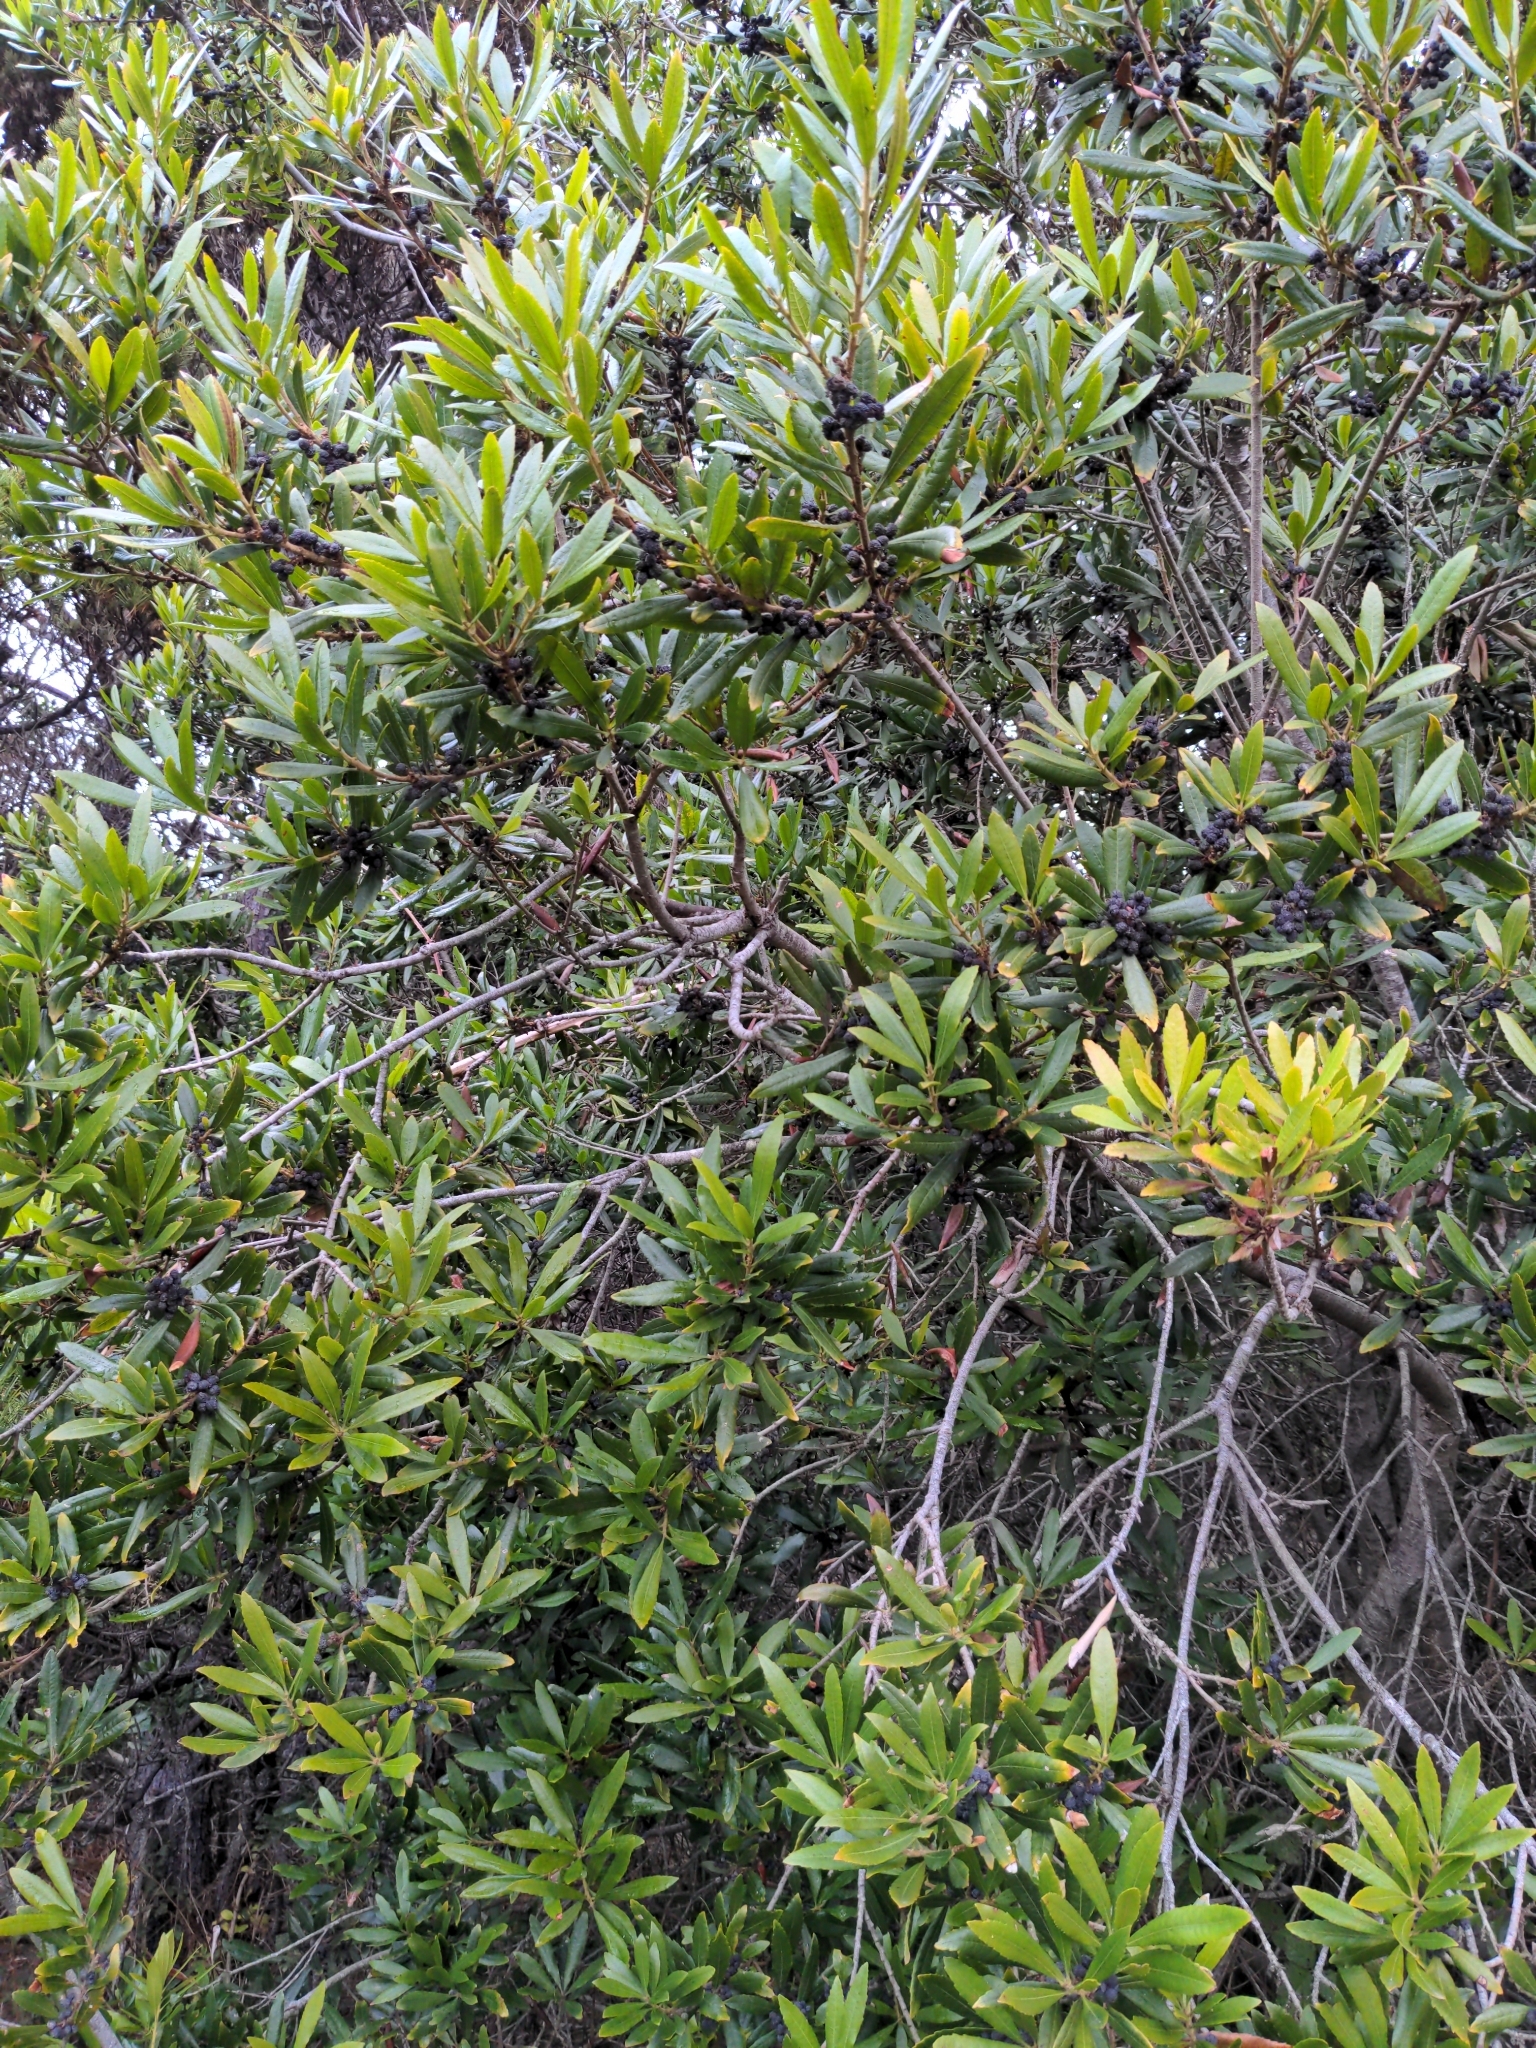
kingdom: Plantae
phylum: Tracheophyta
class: Magnoliopsida
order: Fagales
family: Myricaceae
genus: Morella
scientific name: Morella californica
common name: California wax-myrtle
